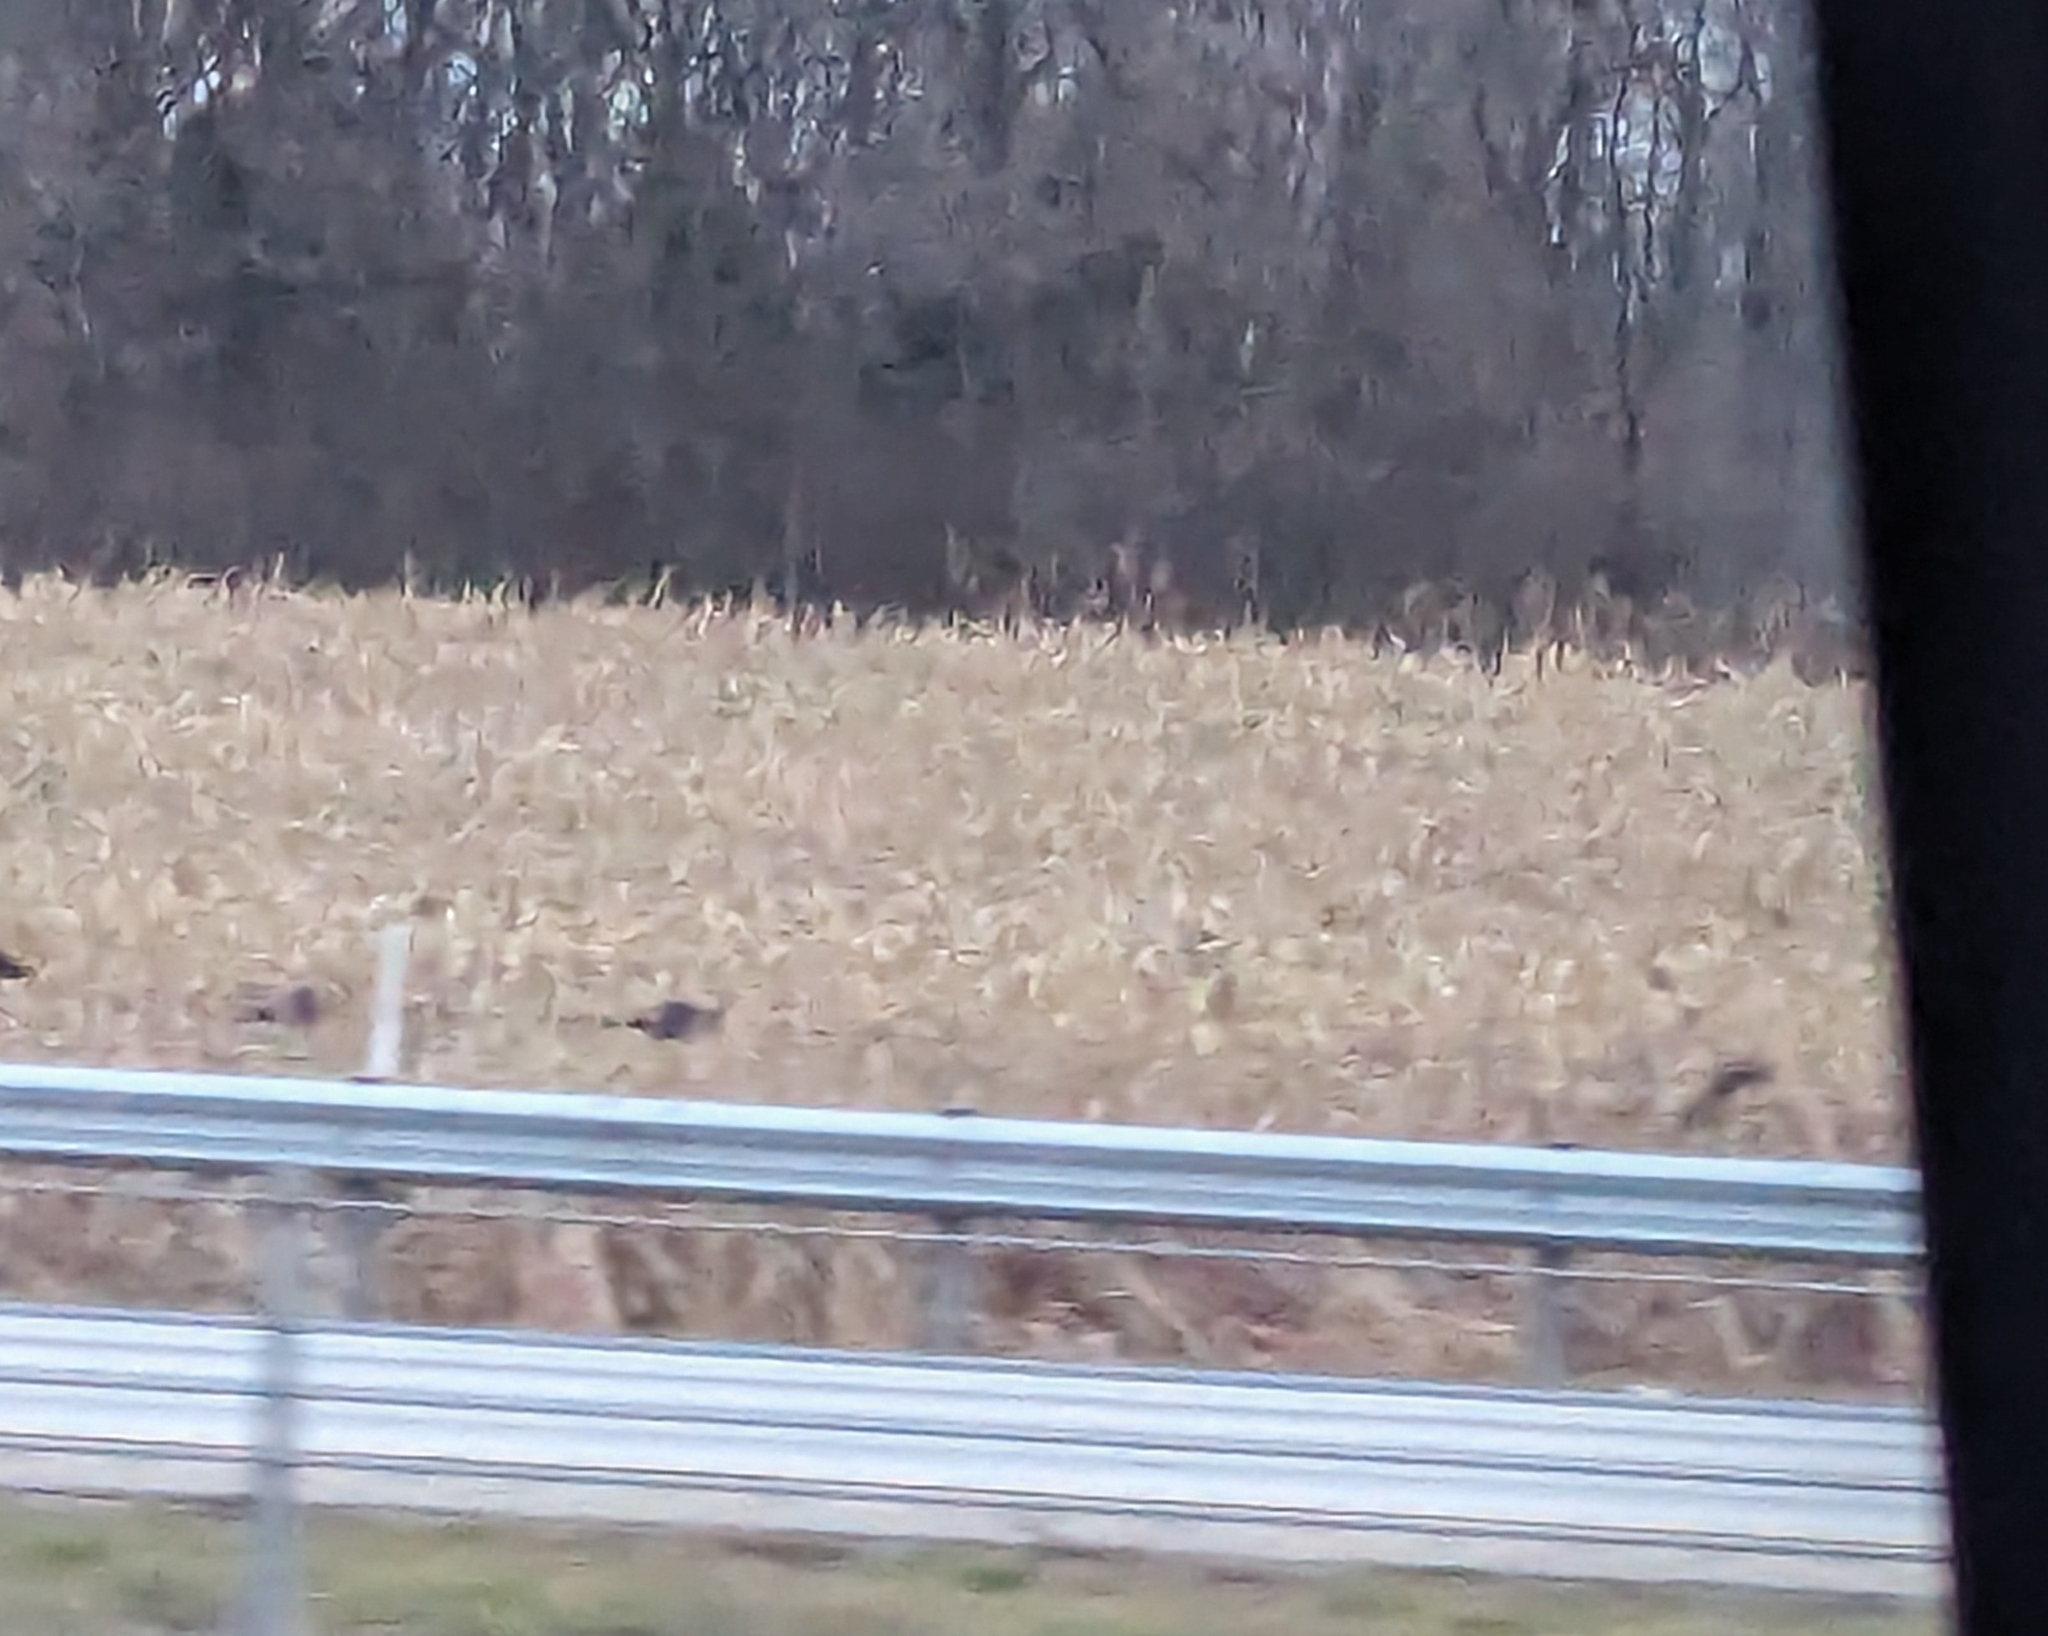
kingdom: Animalia
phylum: Chordata
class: Aves
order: Galliformes
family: Phasianidae
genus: Meleagris
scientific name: Meleagris gallopavo
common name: Wild turkey
